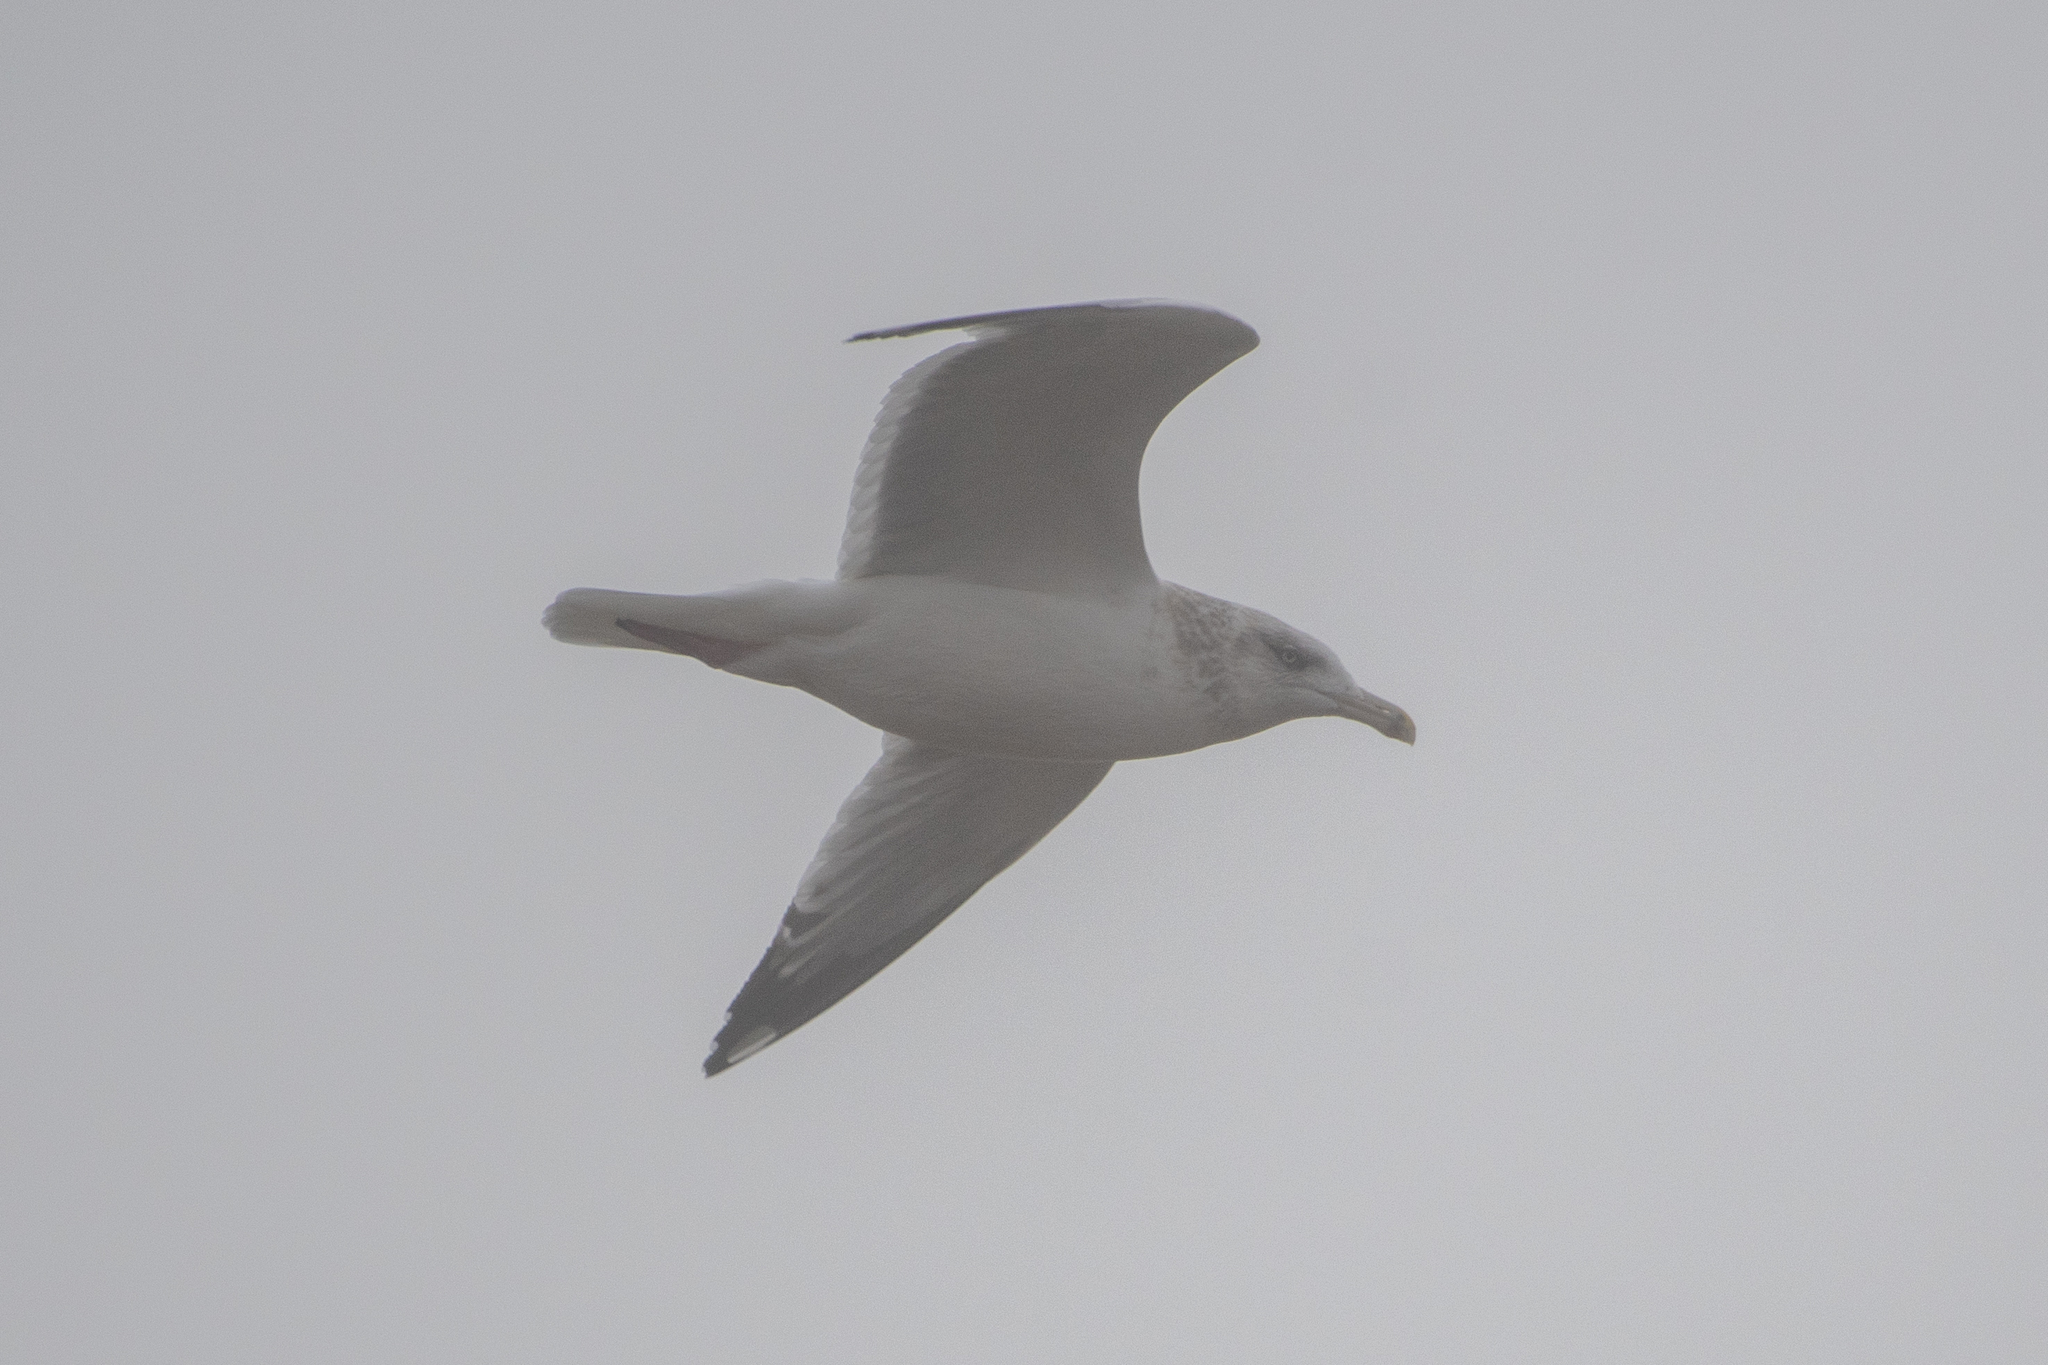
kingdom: Animalia
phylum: Chordata
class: Aves
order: Charadriiformes
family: Laridae
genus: Larus
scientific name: Larus argentatus
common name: Herring gull
